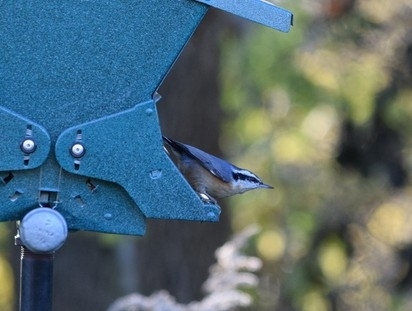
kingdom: Animalia
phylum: Chordata
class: Aves
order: Passeriformes
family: Sittidae
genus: Sitta
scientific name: Sitta canadensis
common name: Red-breasted nuthatch
